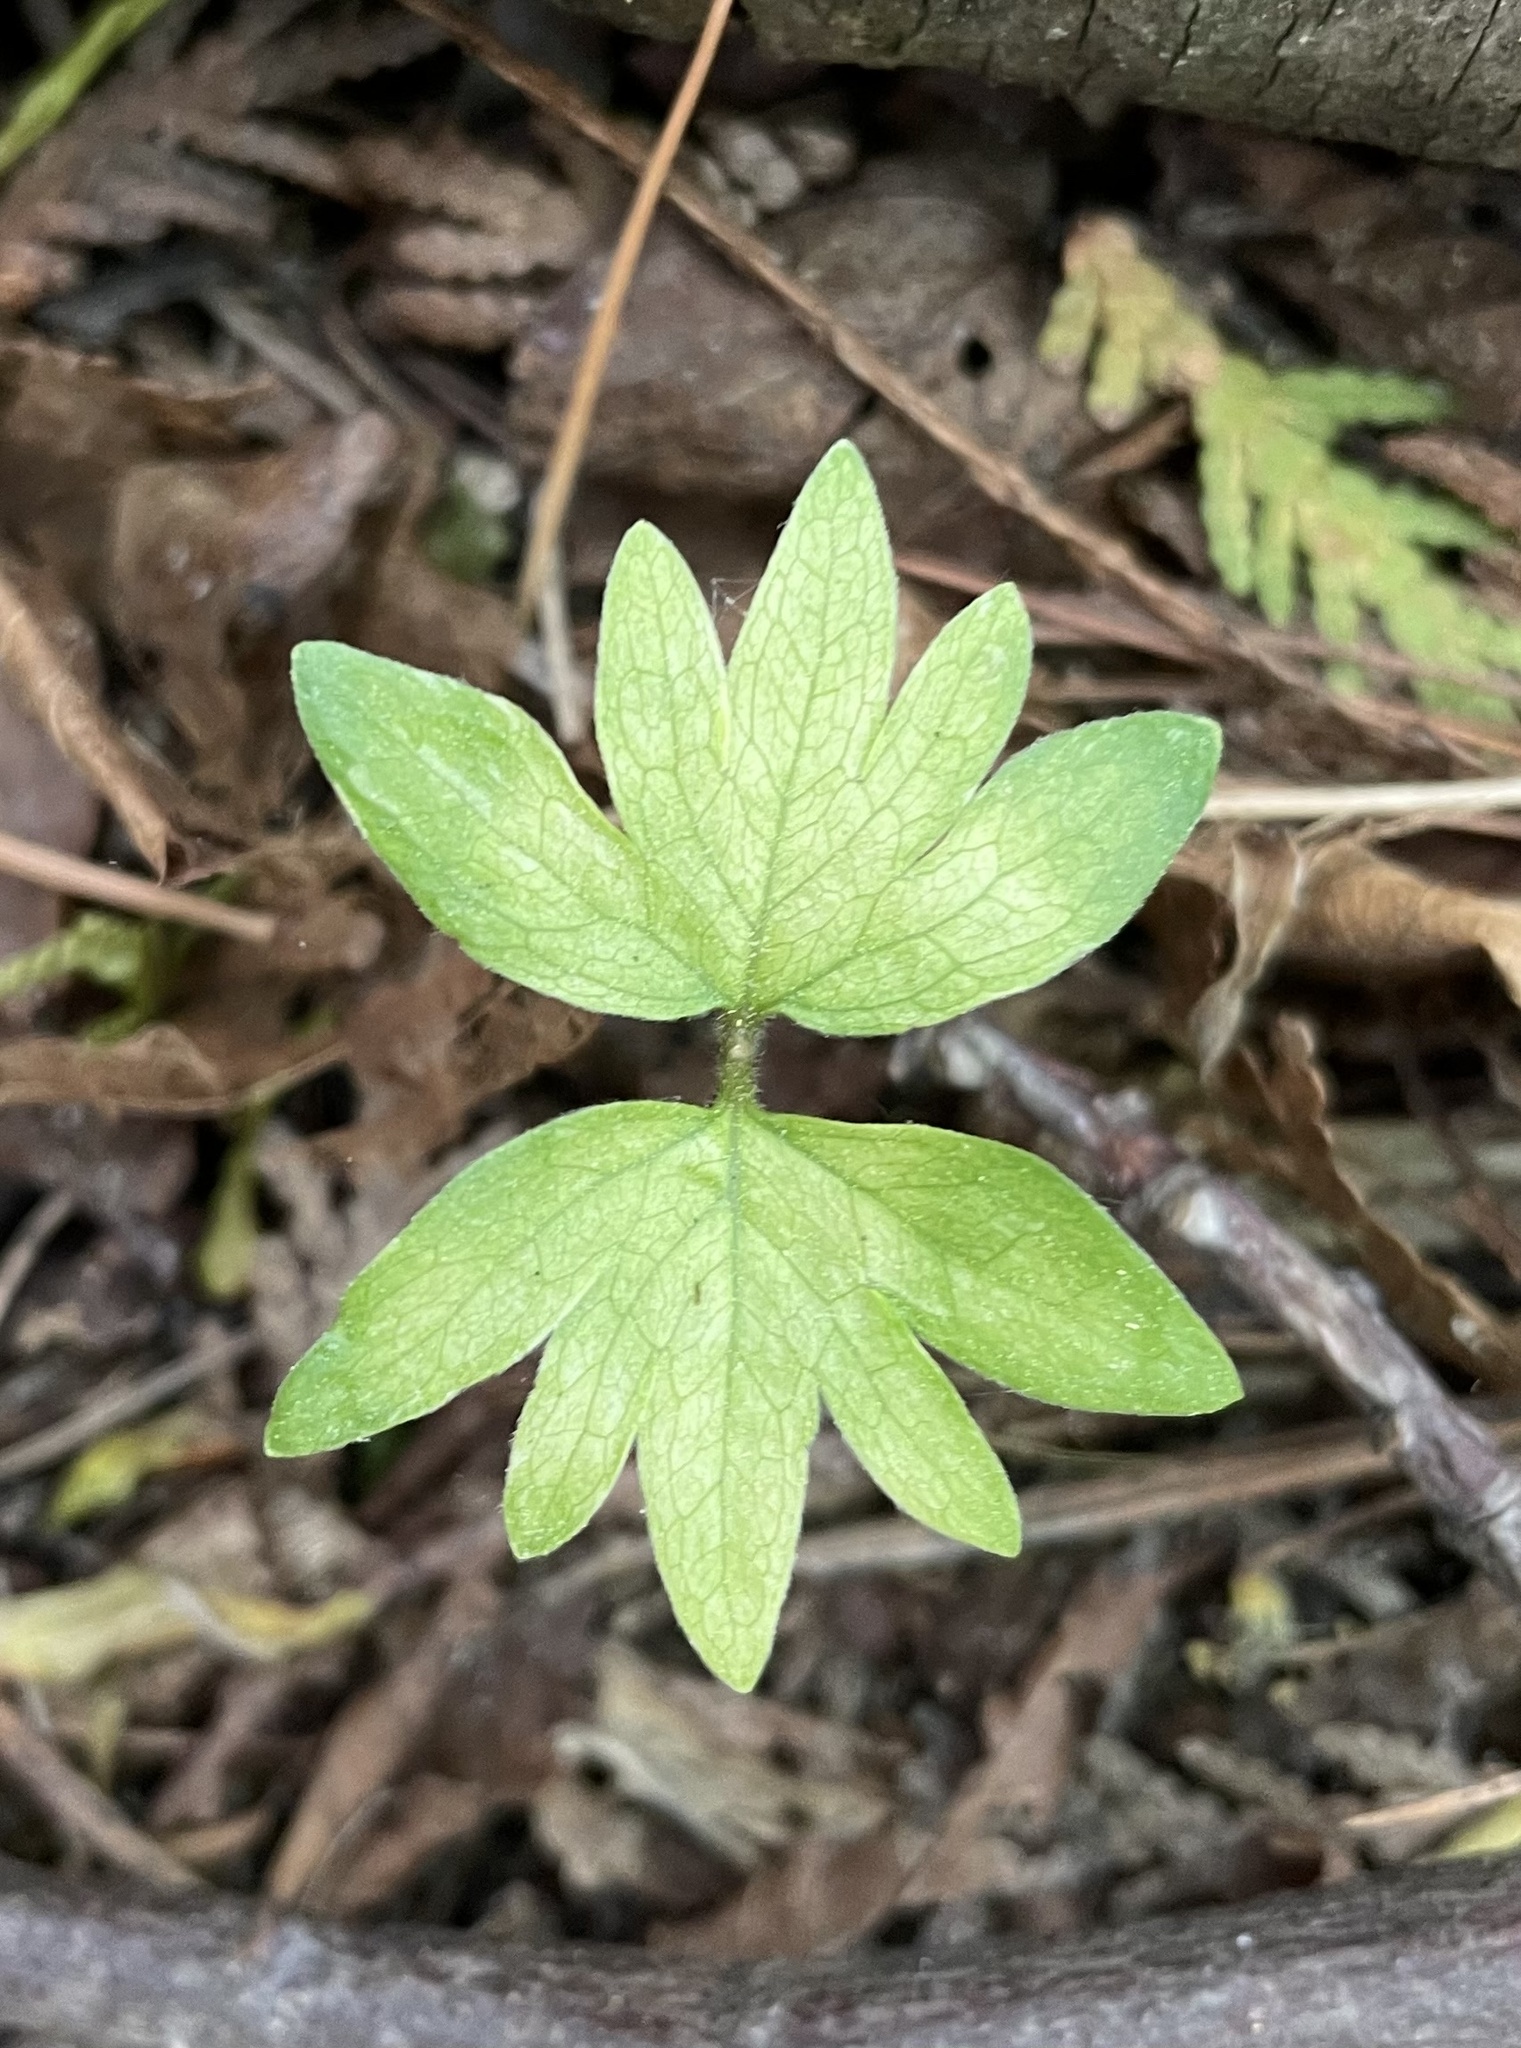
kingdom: Plantae
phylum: Tracheophyta
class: Magnoliopsida
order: Malvales
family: Malvaceae
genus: Tilia
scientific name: Tilia americana
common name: Basswood
